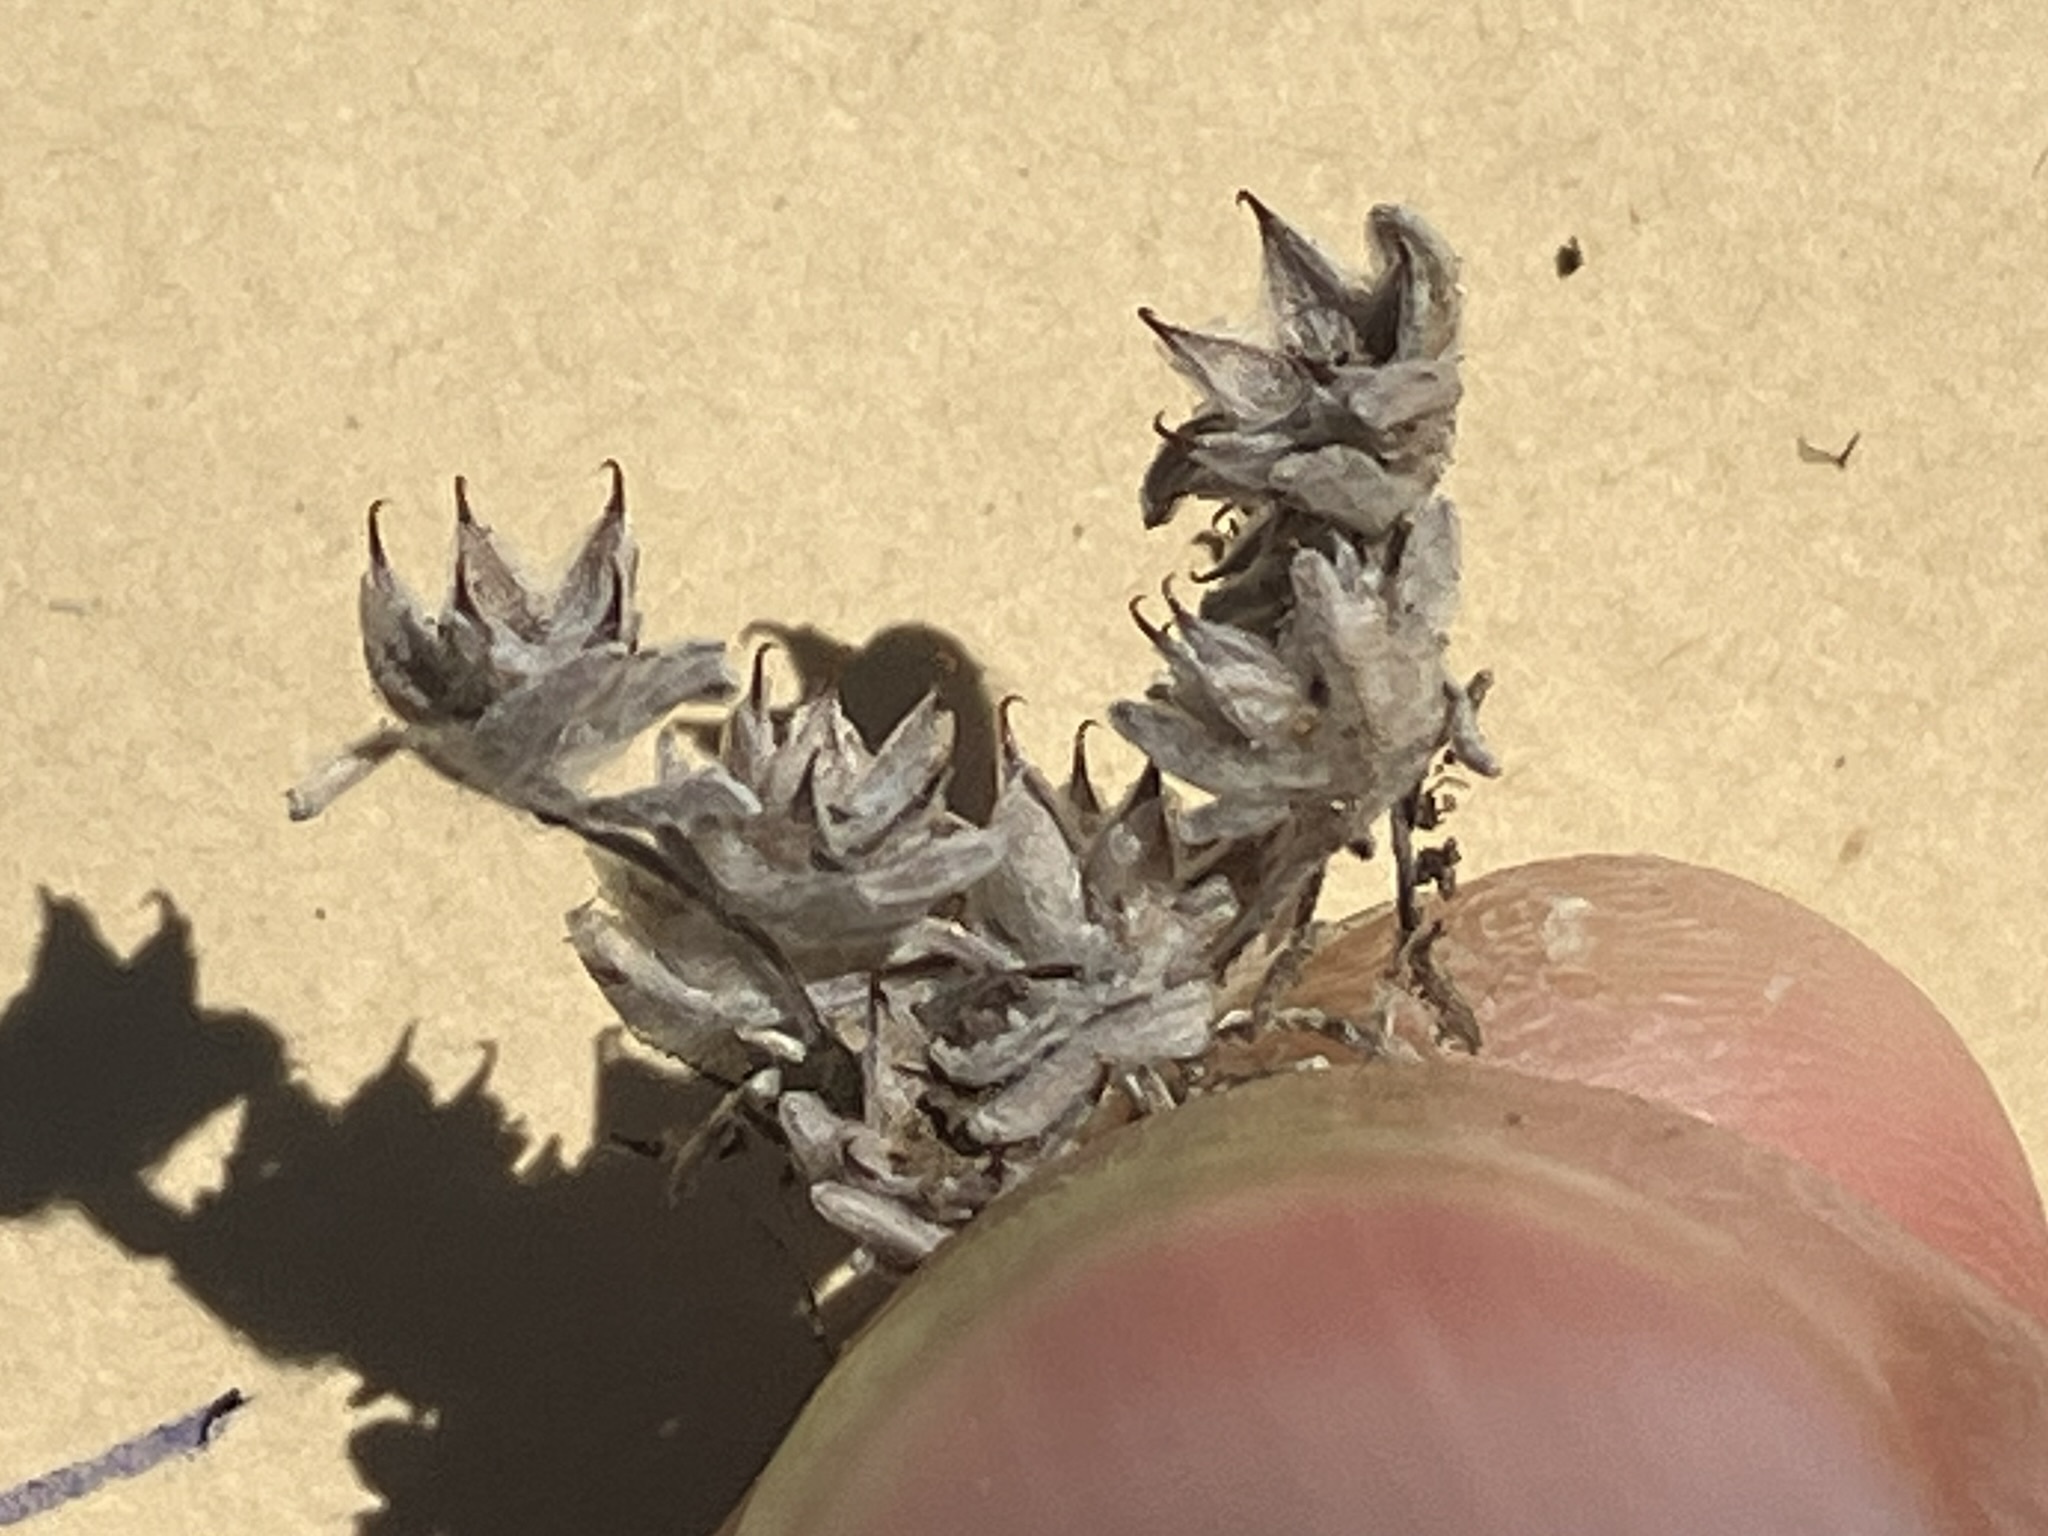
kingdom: Plantae
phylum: Tracheophyta
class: Magnoliopsida
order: Asterales
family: Asteraceae
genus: Ancistrocarphus
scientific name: Ancistrocarphus filagineus
